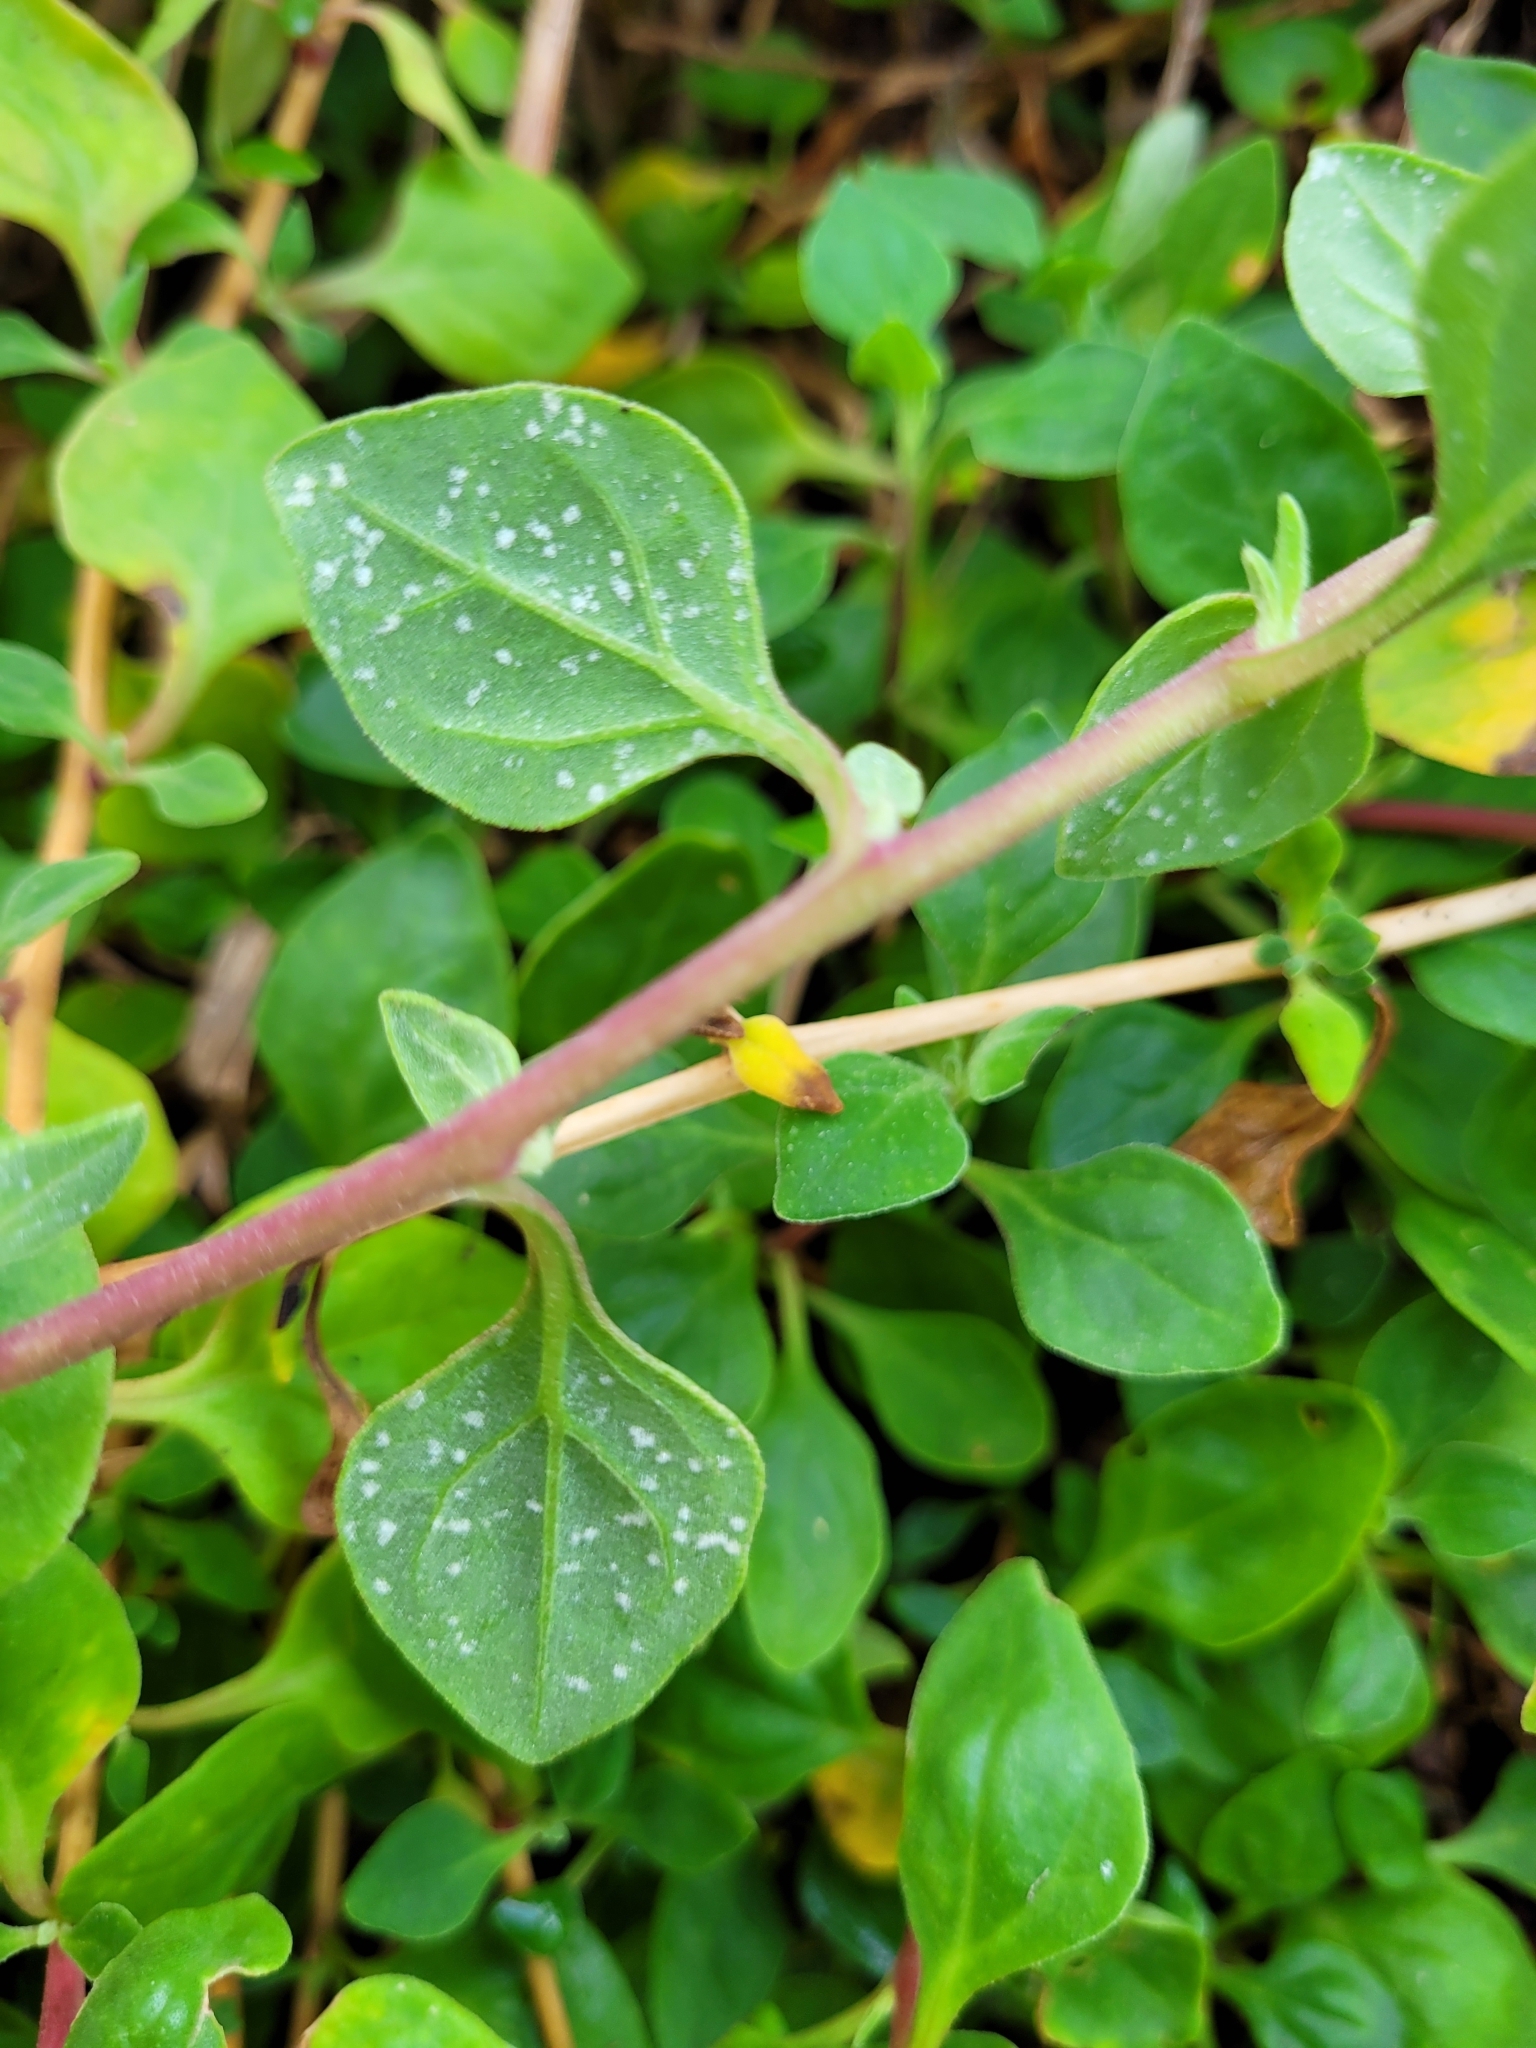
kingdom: Plantae
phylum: Tracheophyta
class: Magnoliopsida
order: Caryophyllales
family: Aizoaceae
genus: Tetragonia
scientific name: Tetragonia implexicoma
